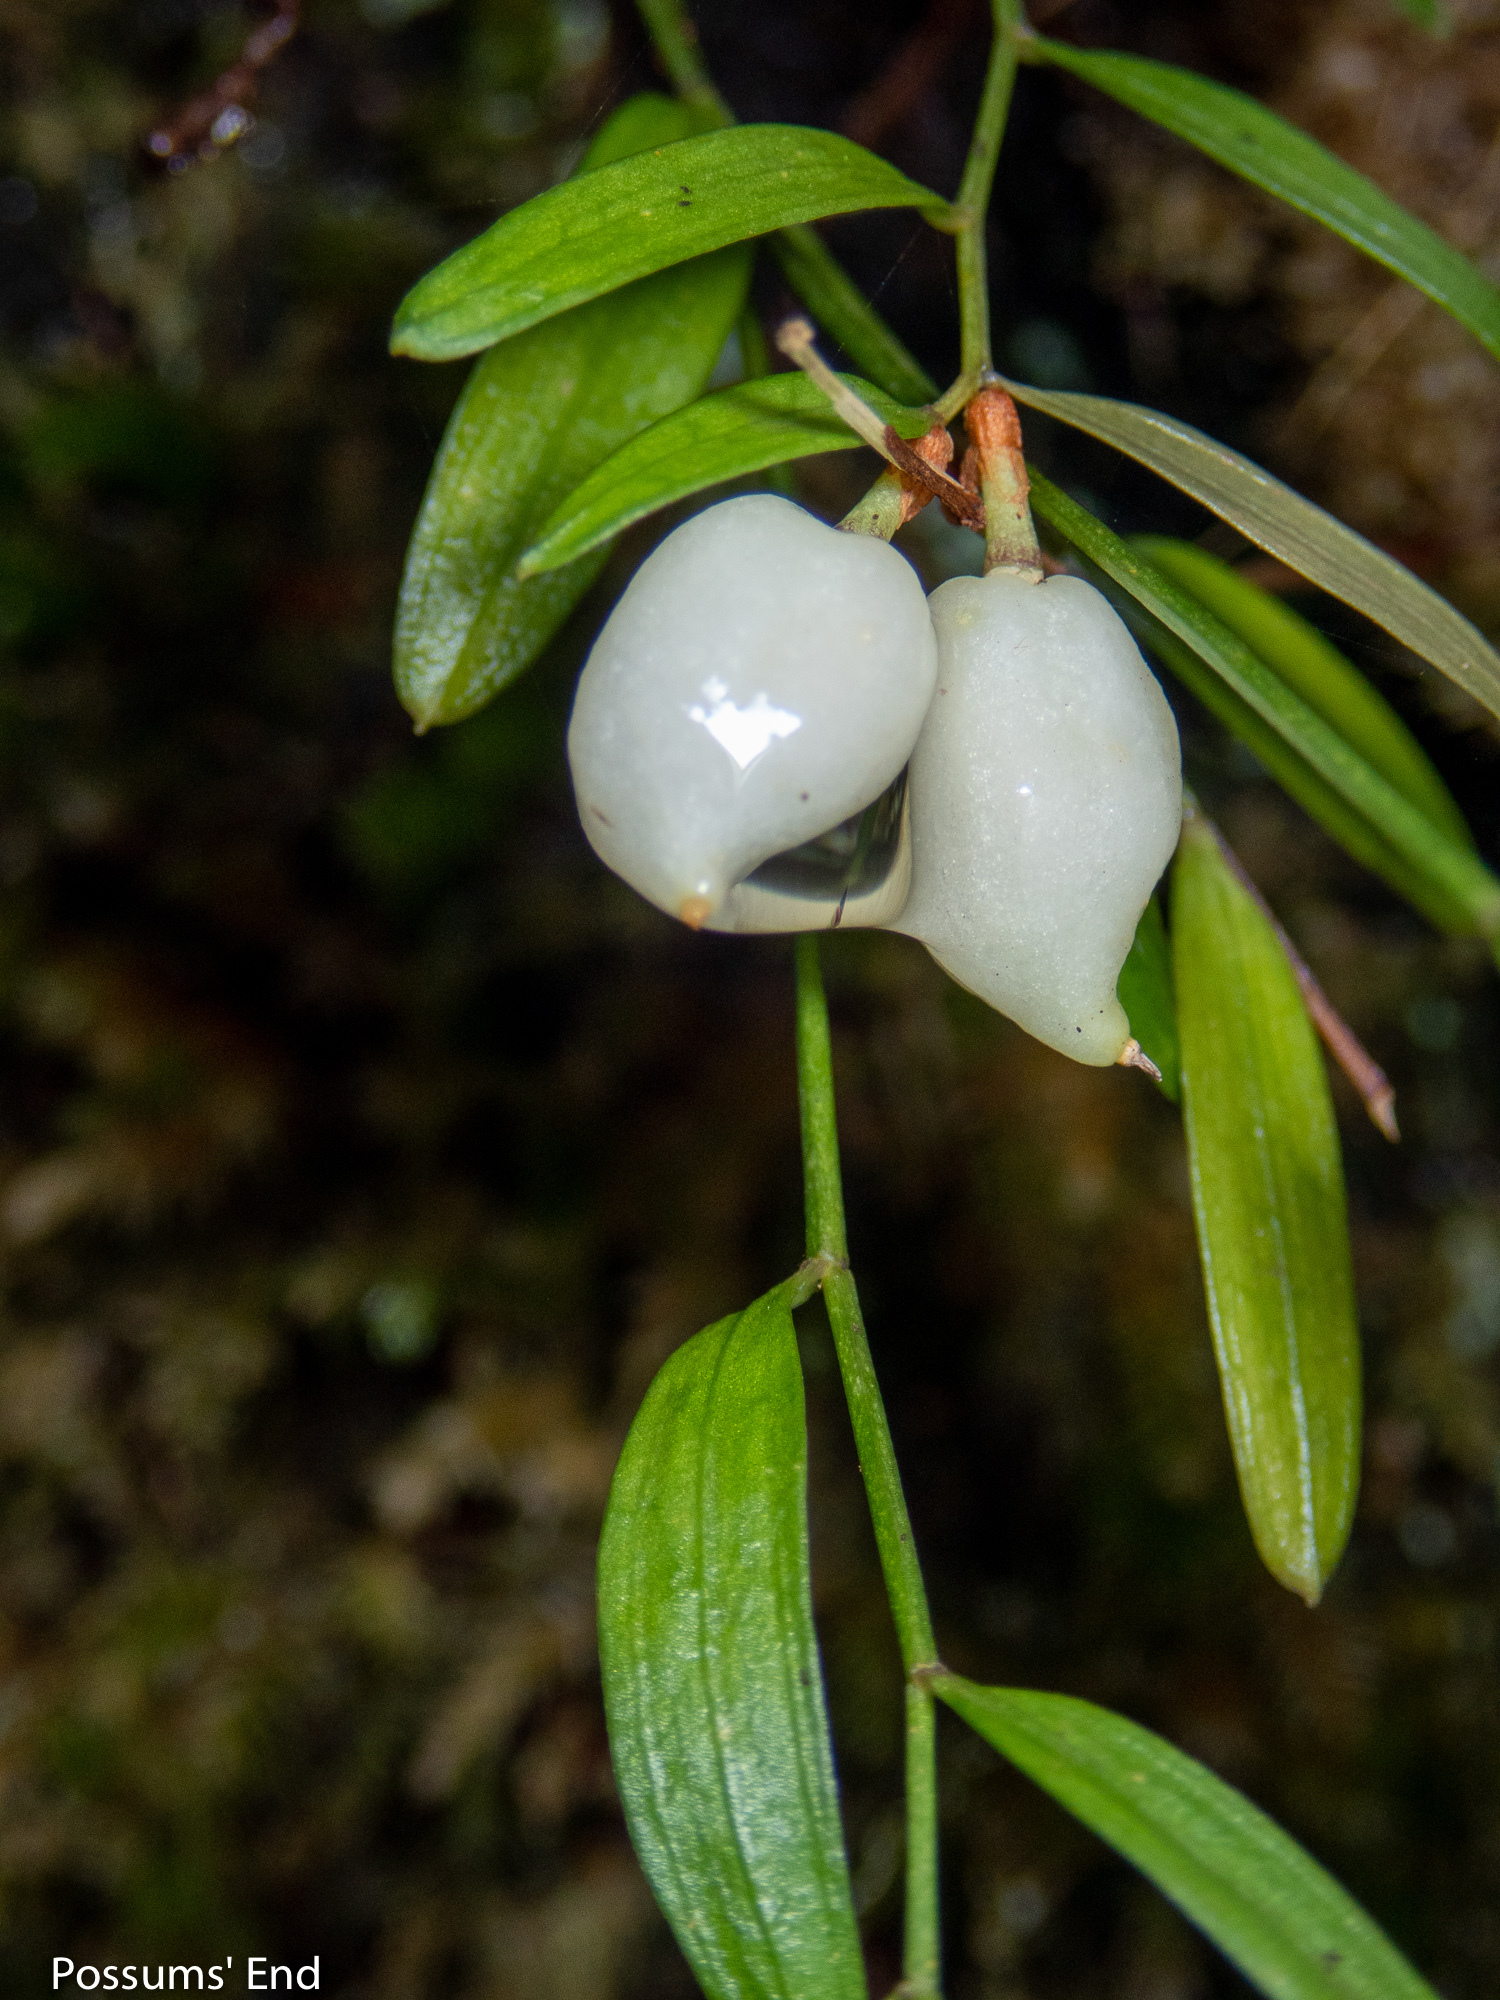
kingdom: Plantae
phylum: Tracheophyta
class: Liliopsida
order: Liliales
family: Alstroemeriaceae
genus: Luzuriaga
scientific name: Luzuriaga parviflora
